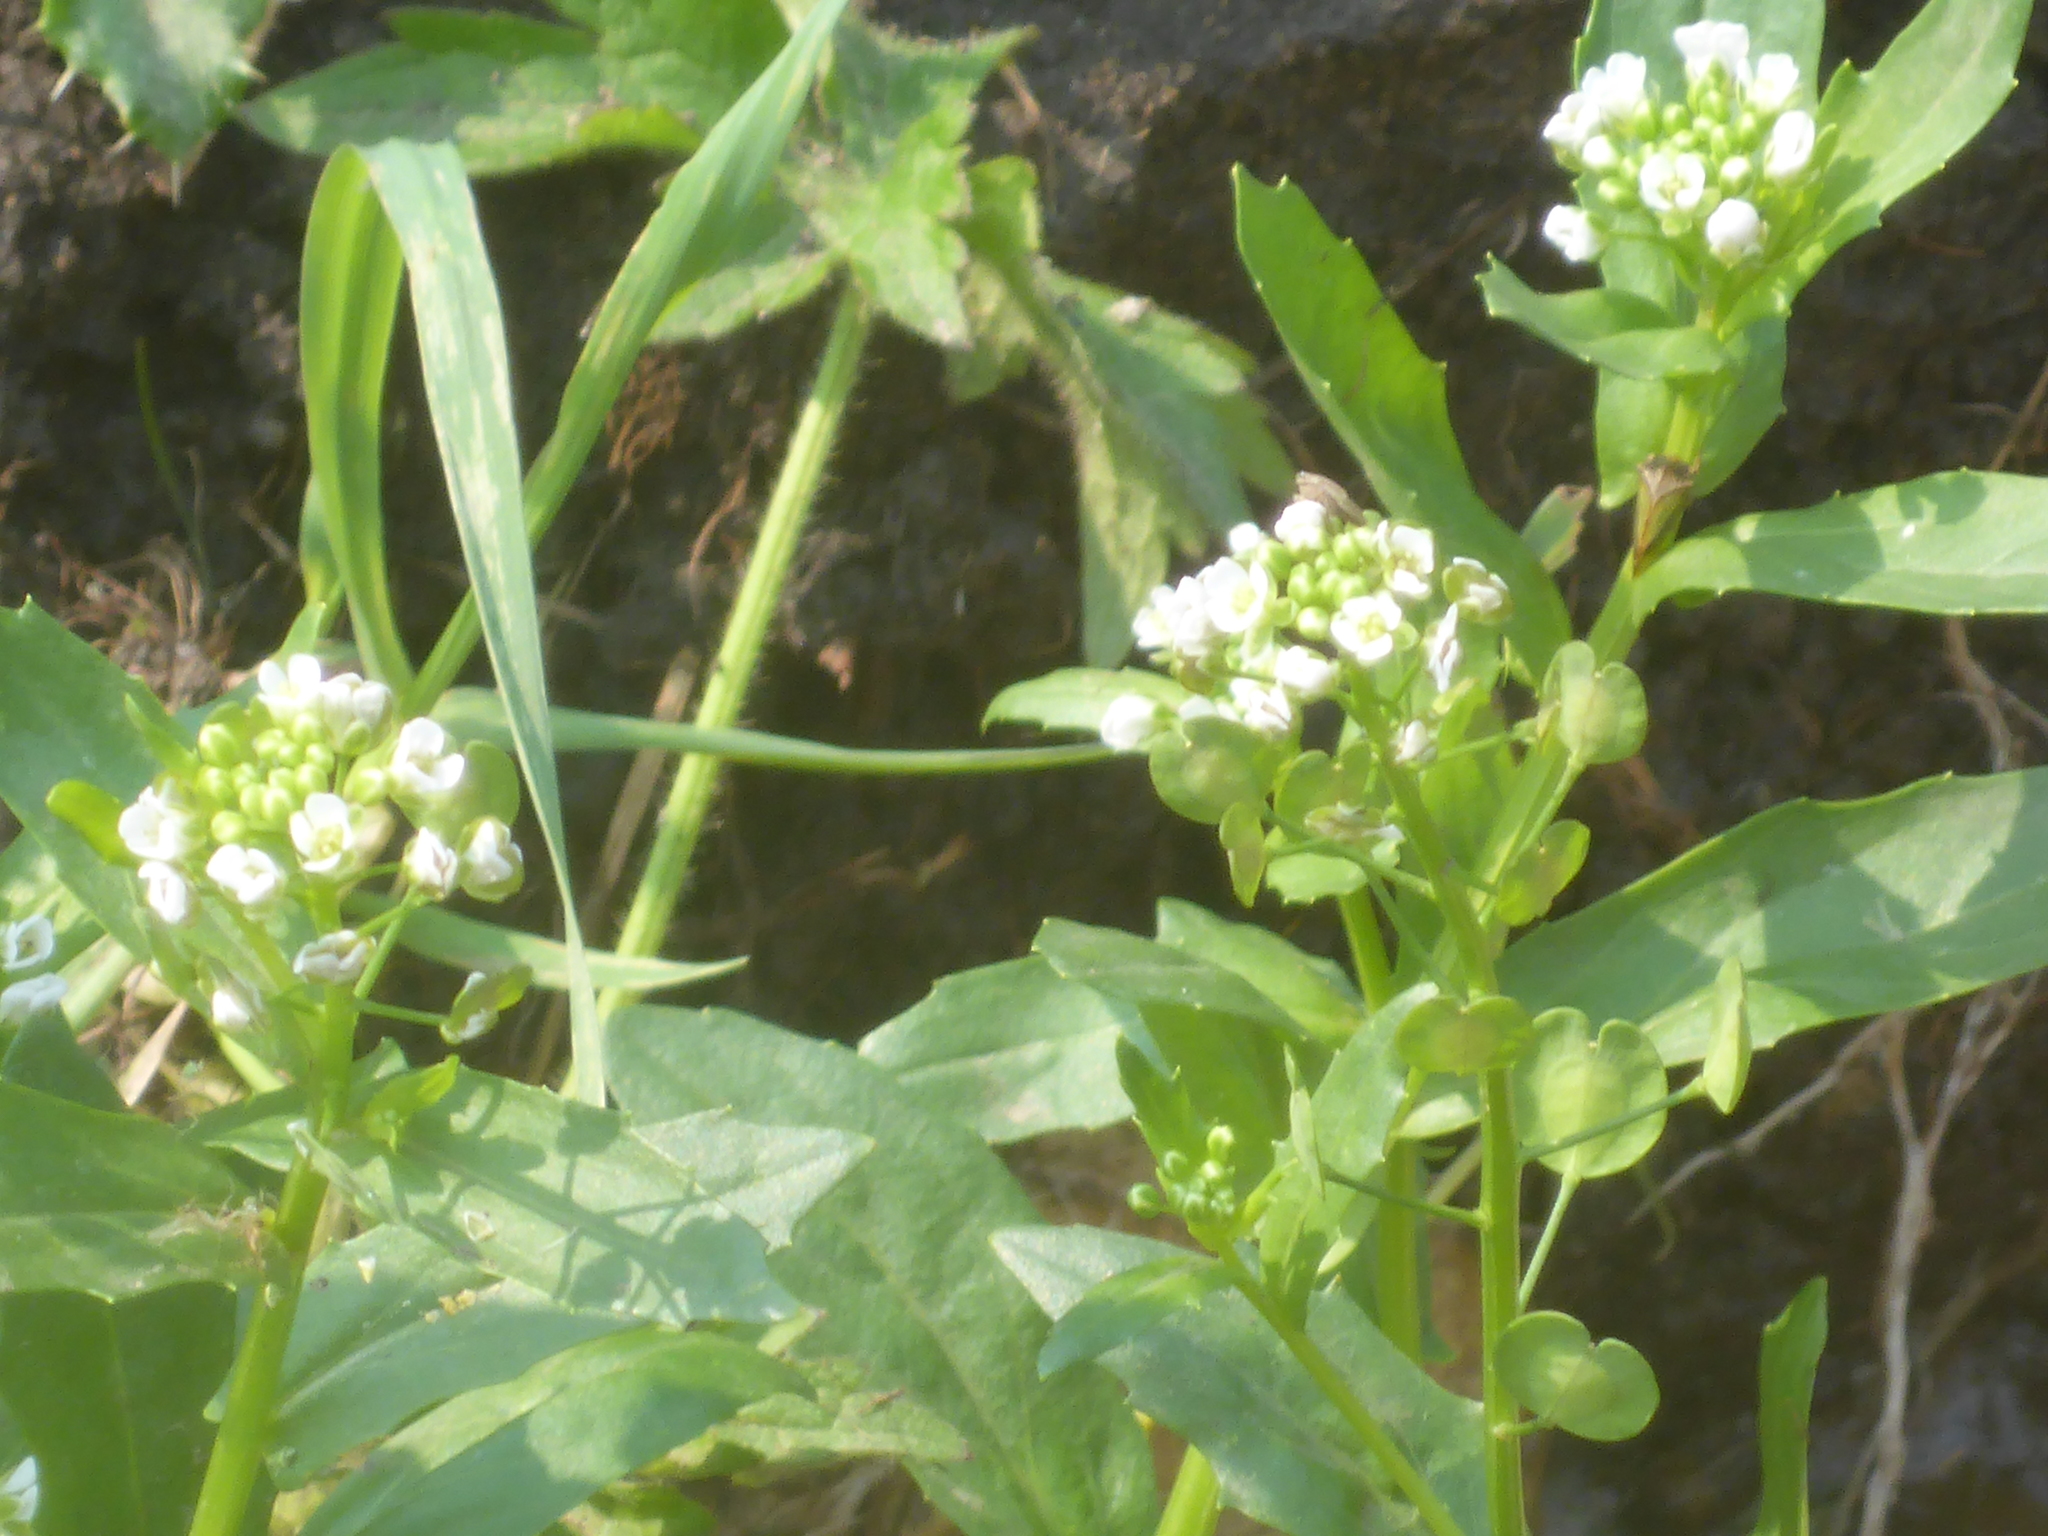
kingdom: Plantae
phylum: Tracheophyta
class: Magnoliopsida
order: Brassicales
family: Brassicaceae
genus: Thlaspi
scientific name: Thlaspi arvense
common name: Field pennycress
